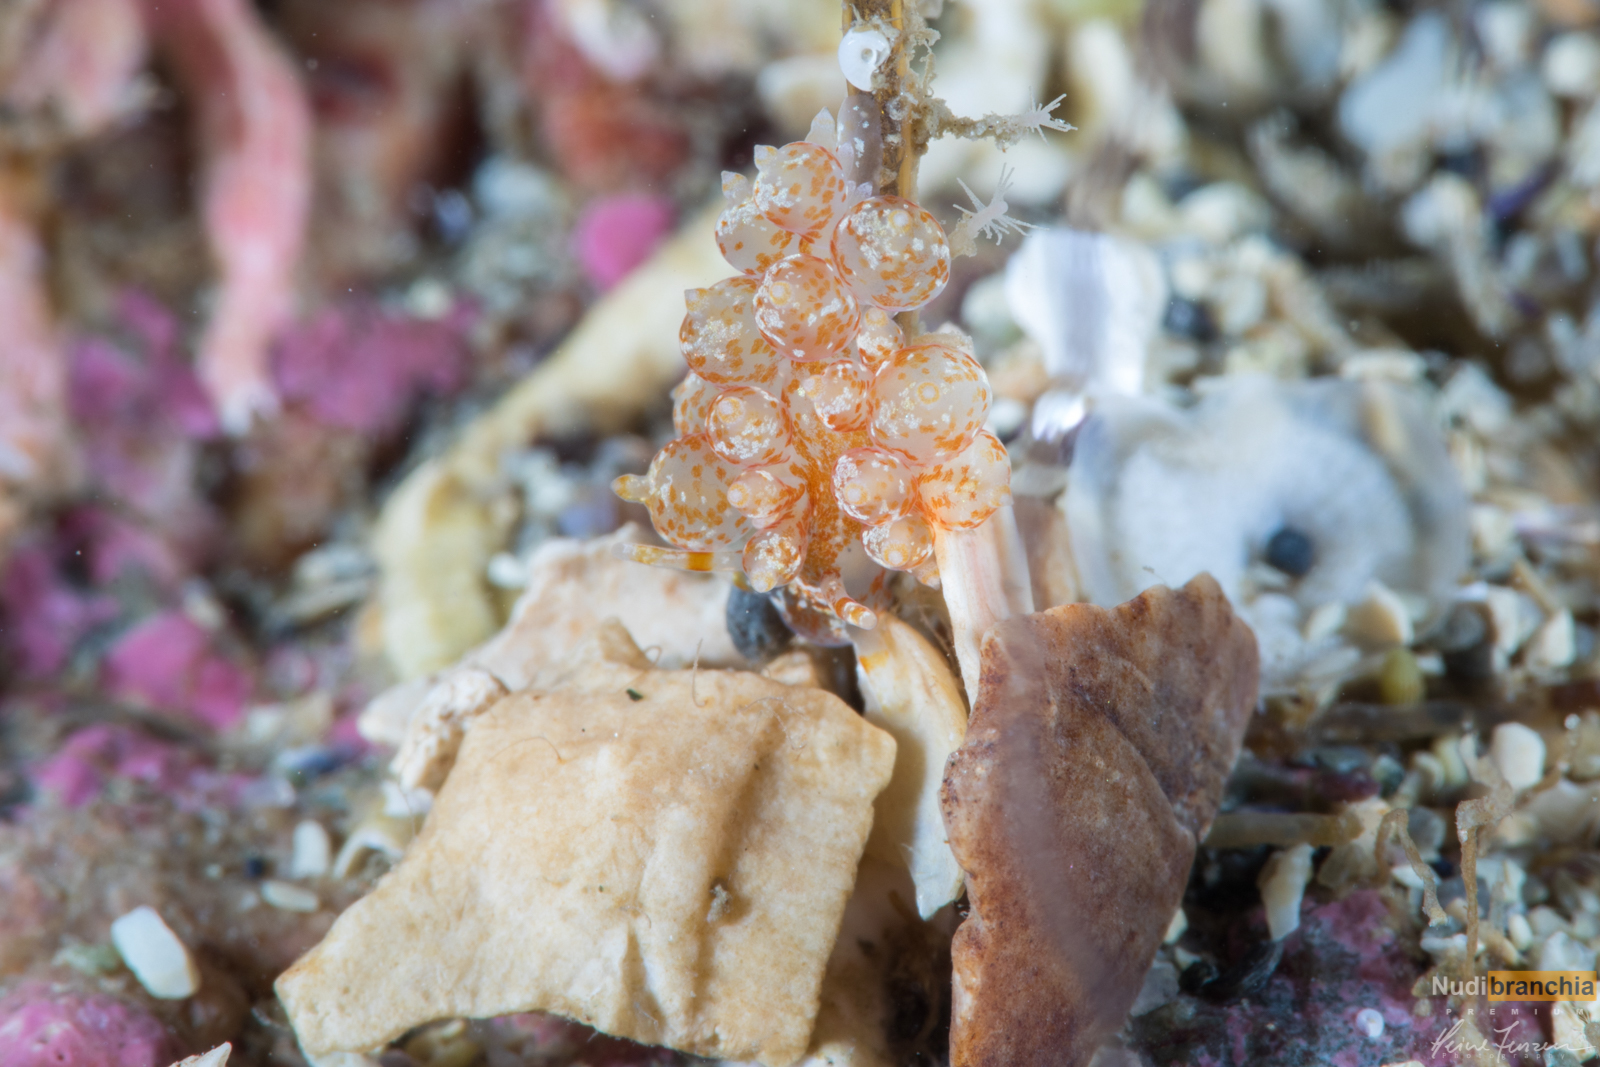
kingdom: Animalia
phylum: Mollusca
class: Gastropoda
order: Nudibranchia
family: Eubranchidae
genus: Amphorina
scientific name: Amphorina pallida
